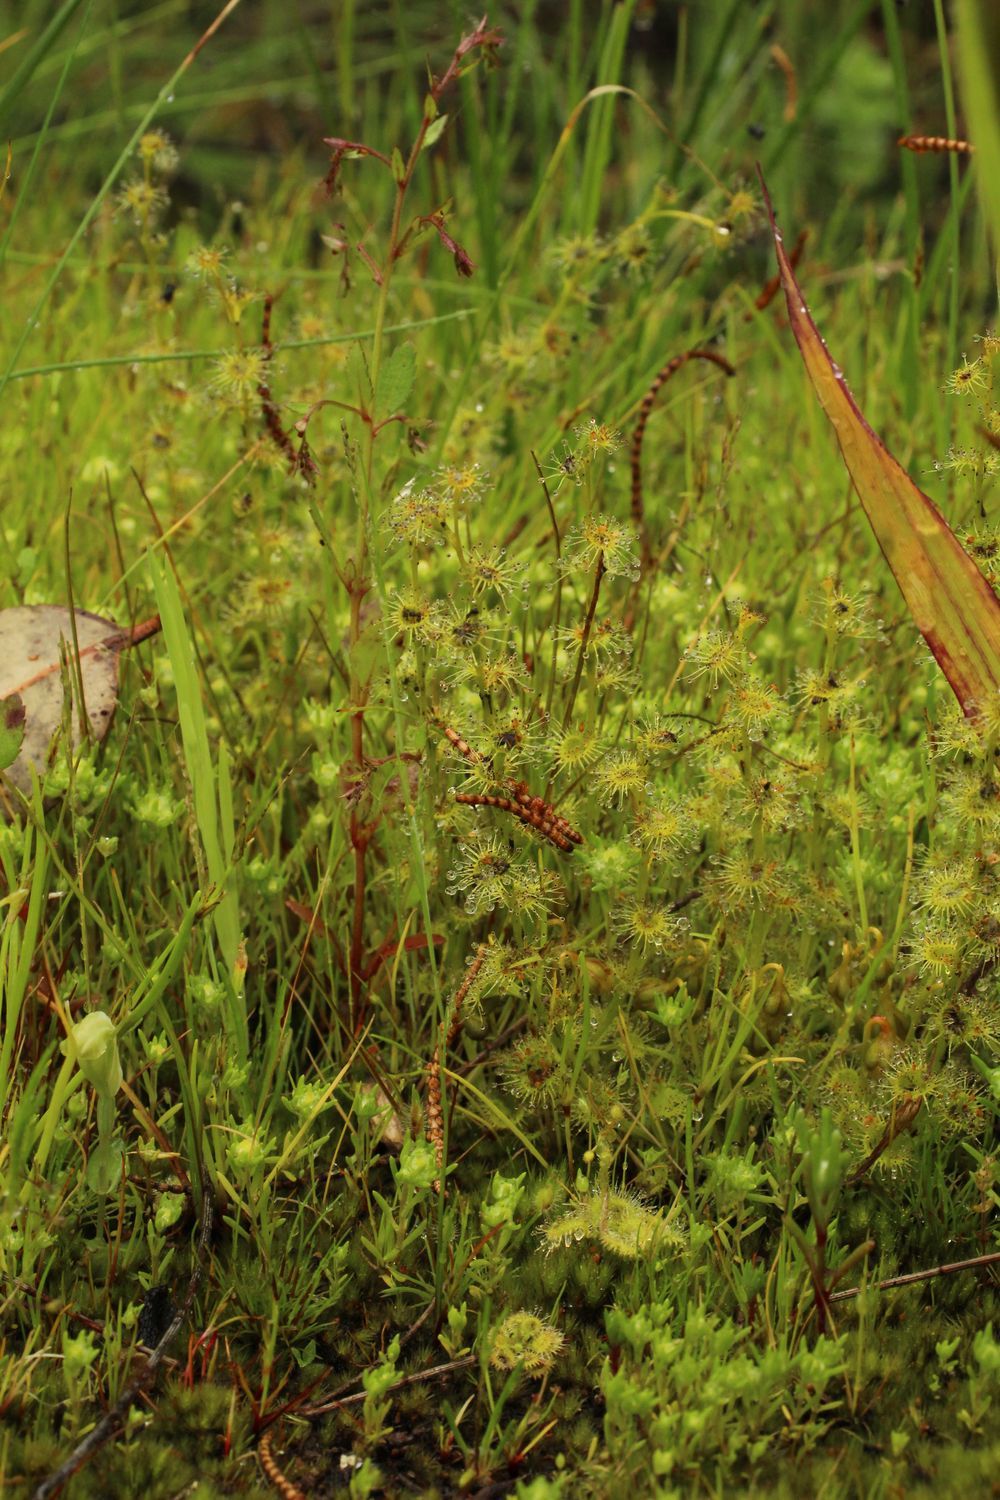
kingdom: Plantae
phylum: Tracheophyta
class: Magnoliopsida
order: Caryophyllales
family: Droseraceae
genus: Drosera
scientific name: Drosera ramellosa
